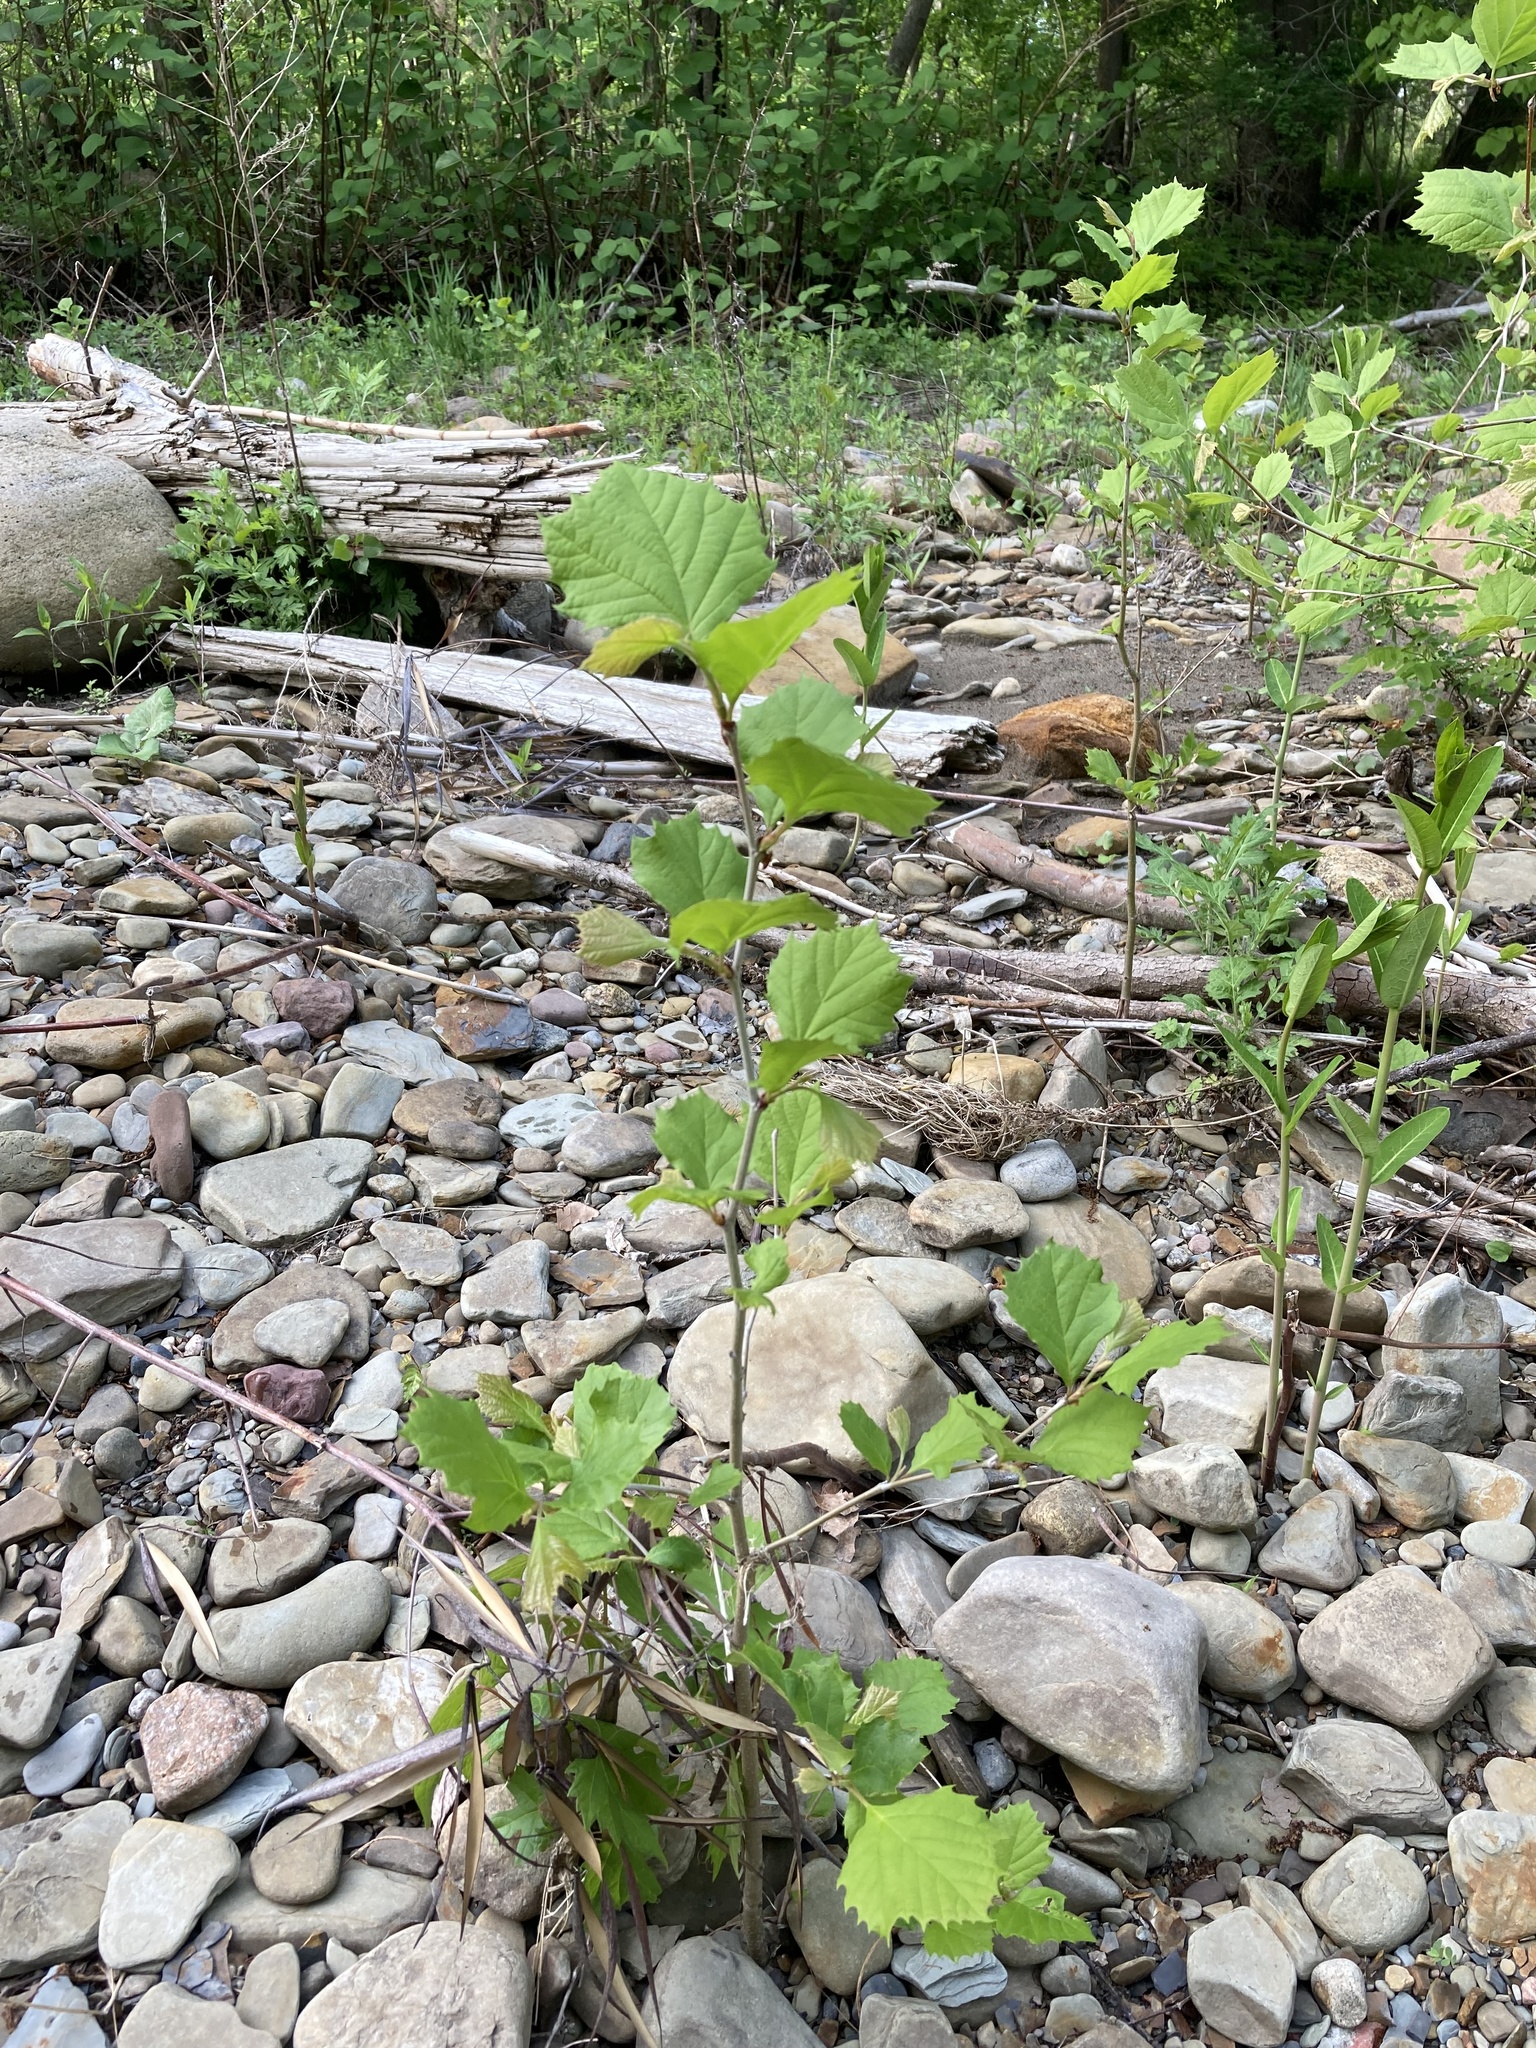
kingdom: Plantae
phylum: Tracheophyta
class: Magnoliopsida
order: Proteales
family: Platanaceae
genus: Platanus
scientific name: Platanus occidentalis
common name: American sycamore
